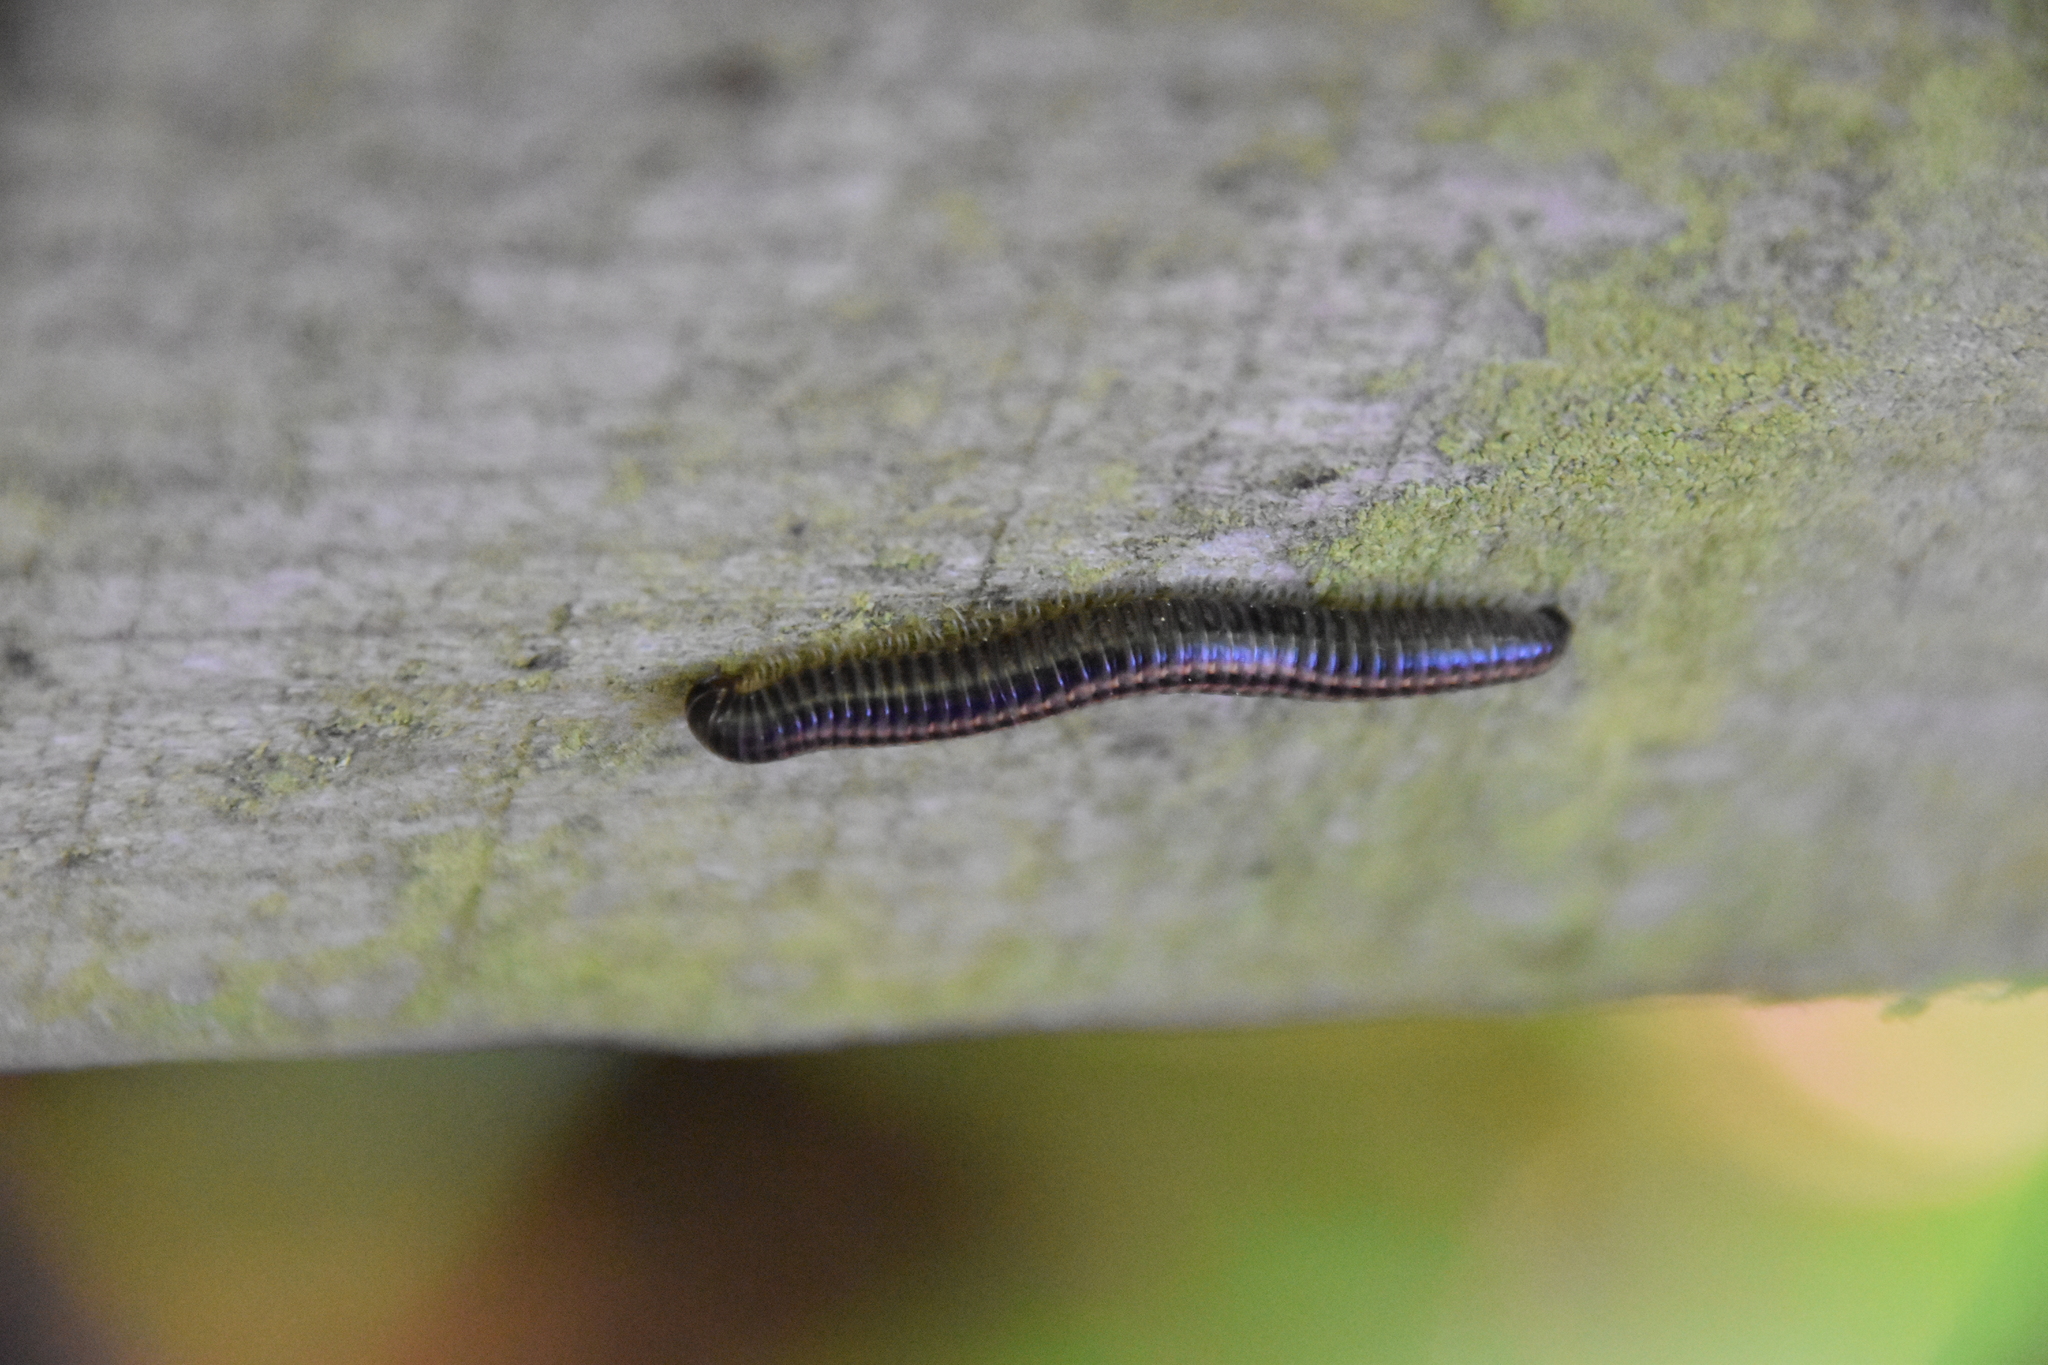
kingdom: Animalia
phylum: Arthropoda
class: Diplopoda
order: Julida
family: Julidae
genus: Ommatoiulus
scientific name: Ommatoiulus sabulosus
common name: Striped millipede
